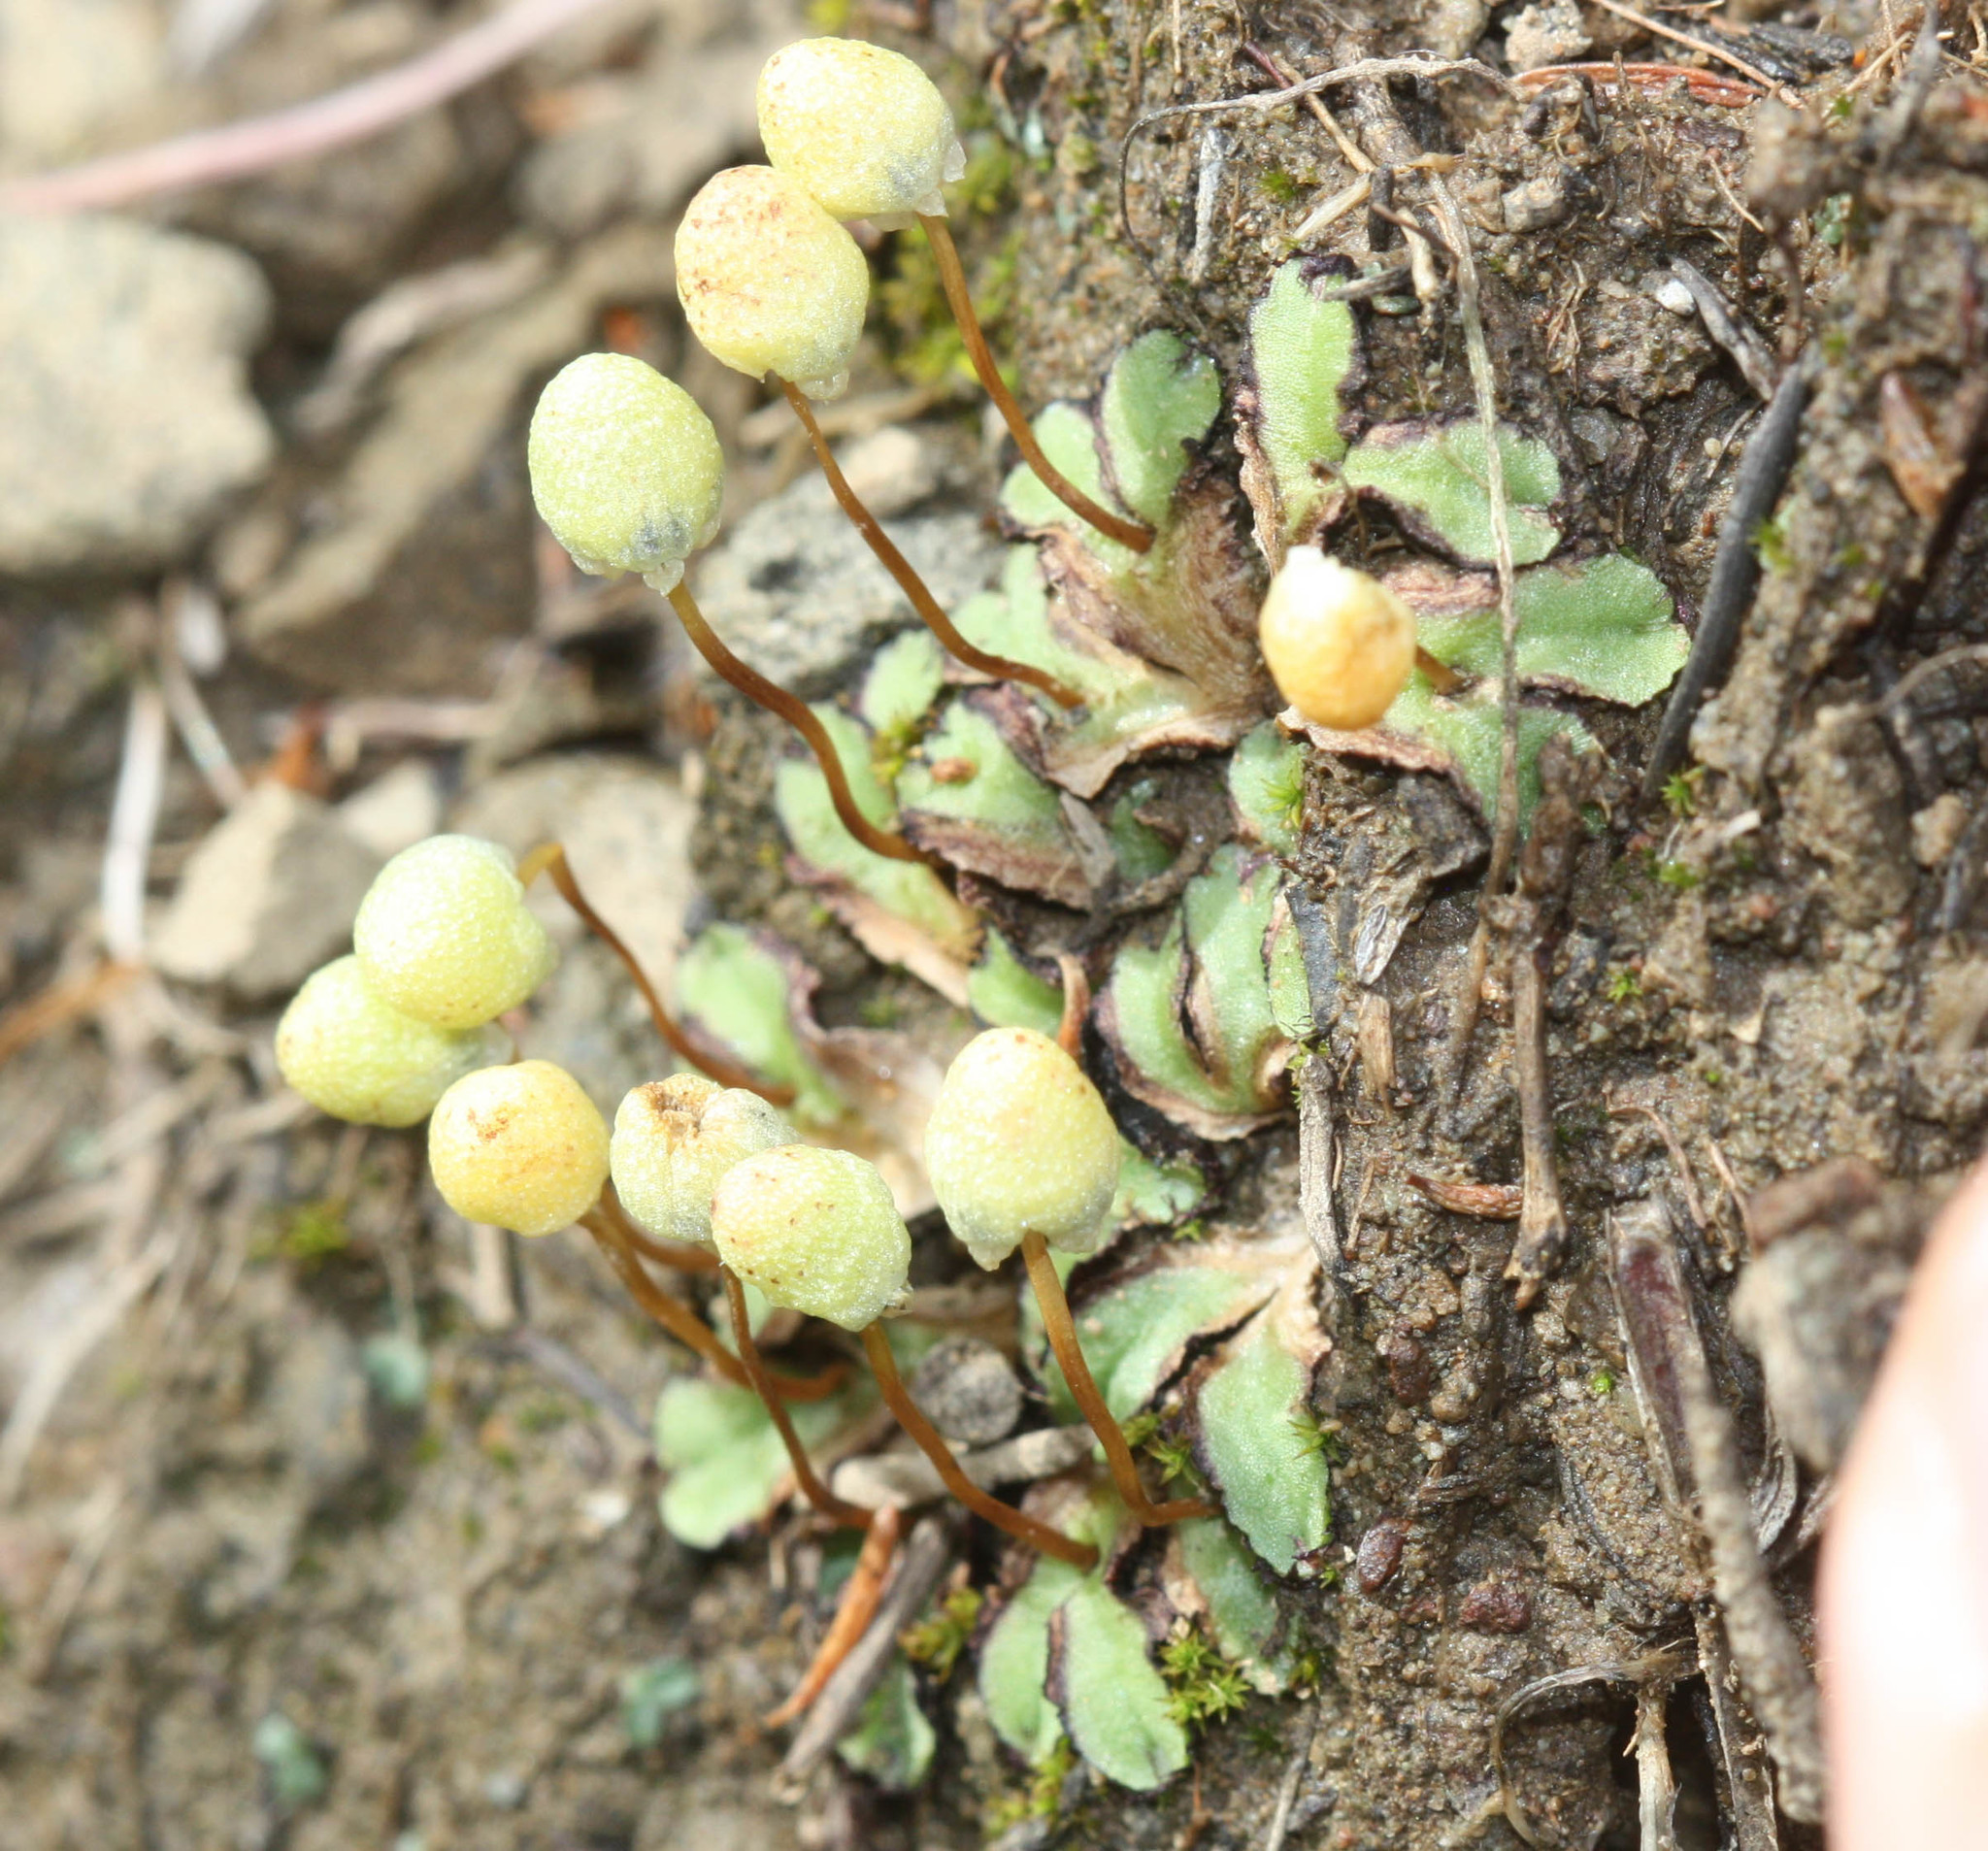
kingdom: Plantae
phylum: Marchantiophyta
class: Marchantiopsida
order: Marchantiales
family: Aytoniaceae
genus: Asterella
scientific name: Asterella palmeri
